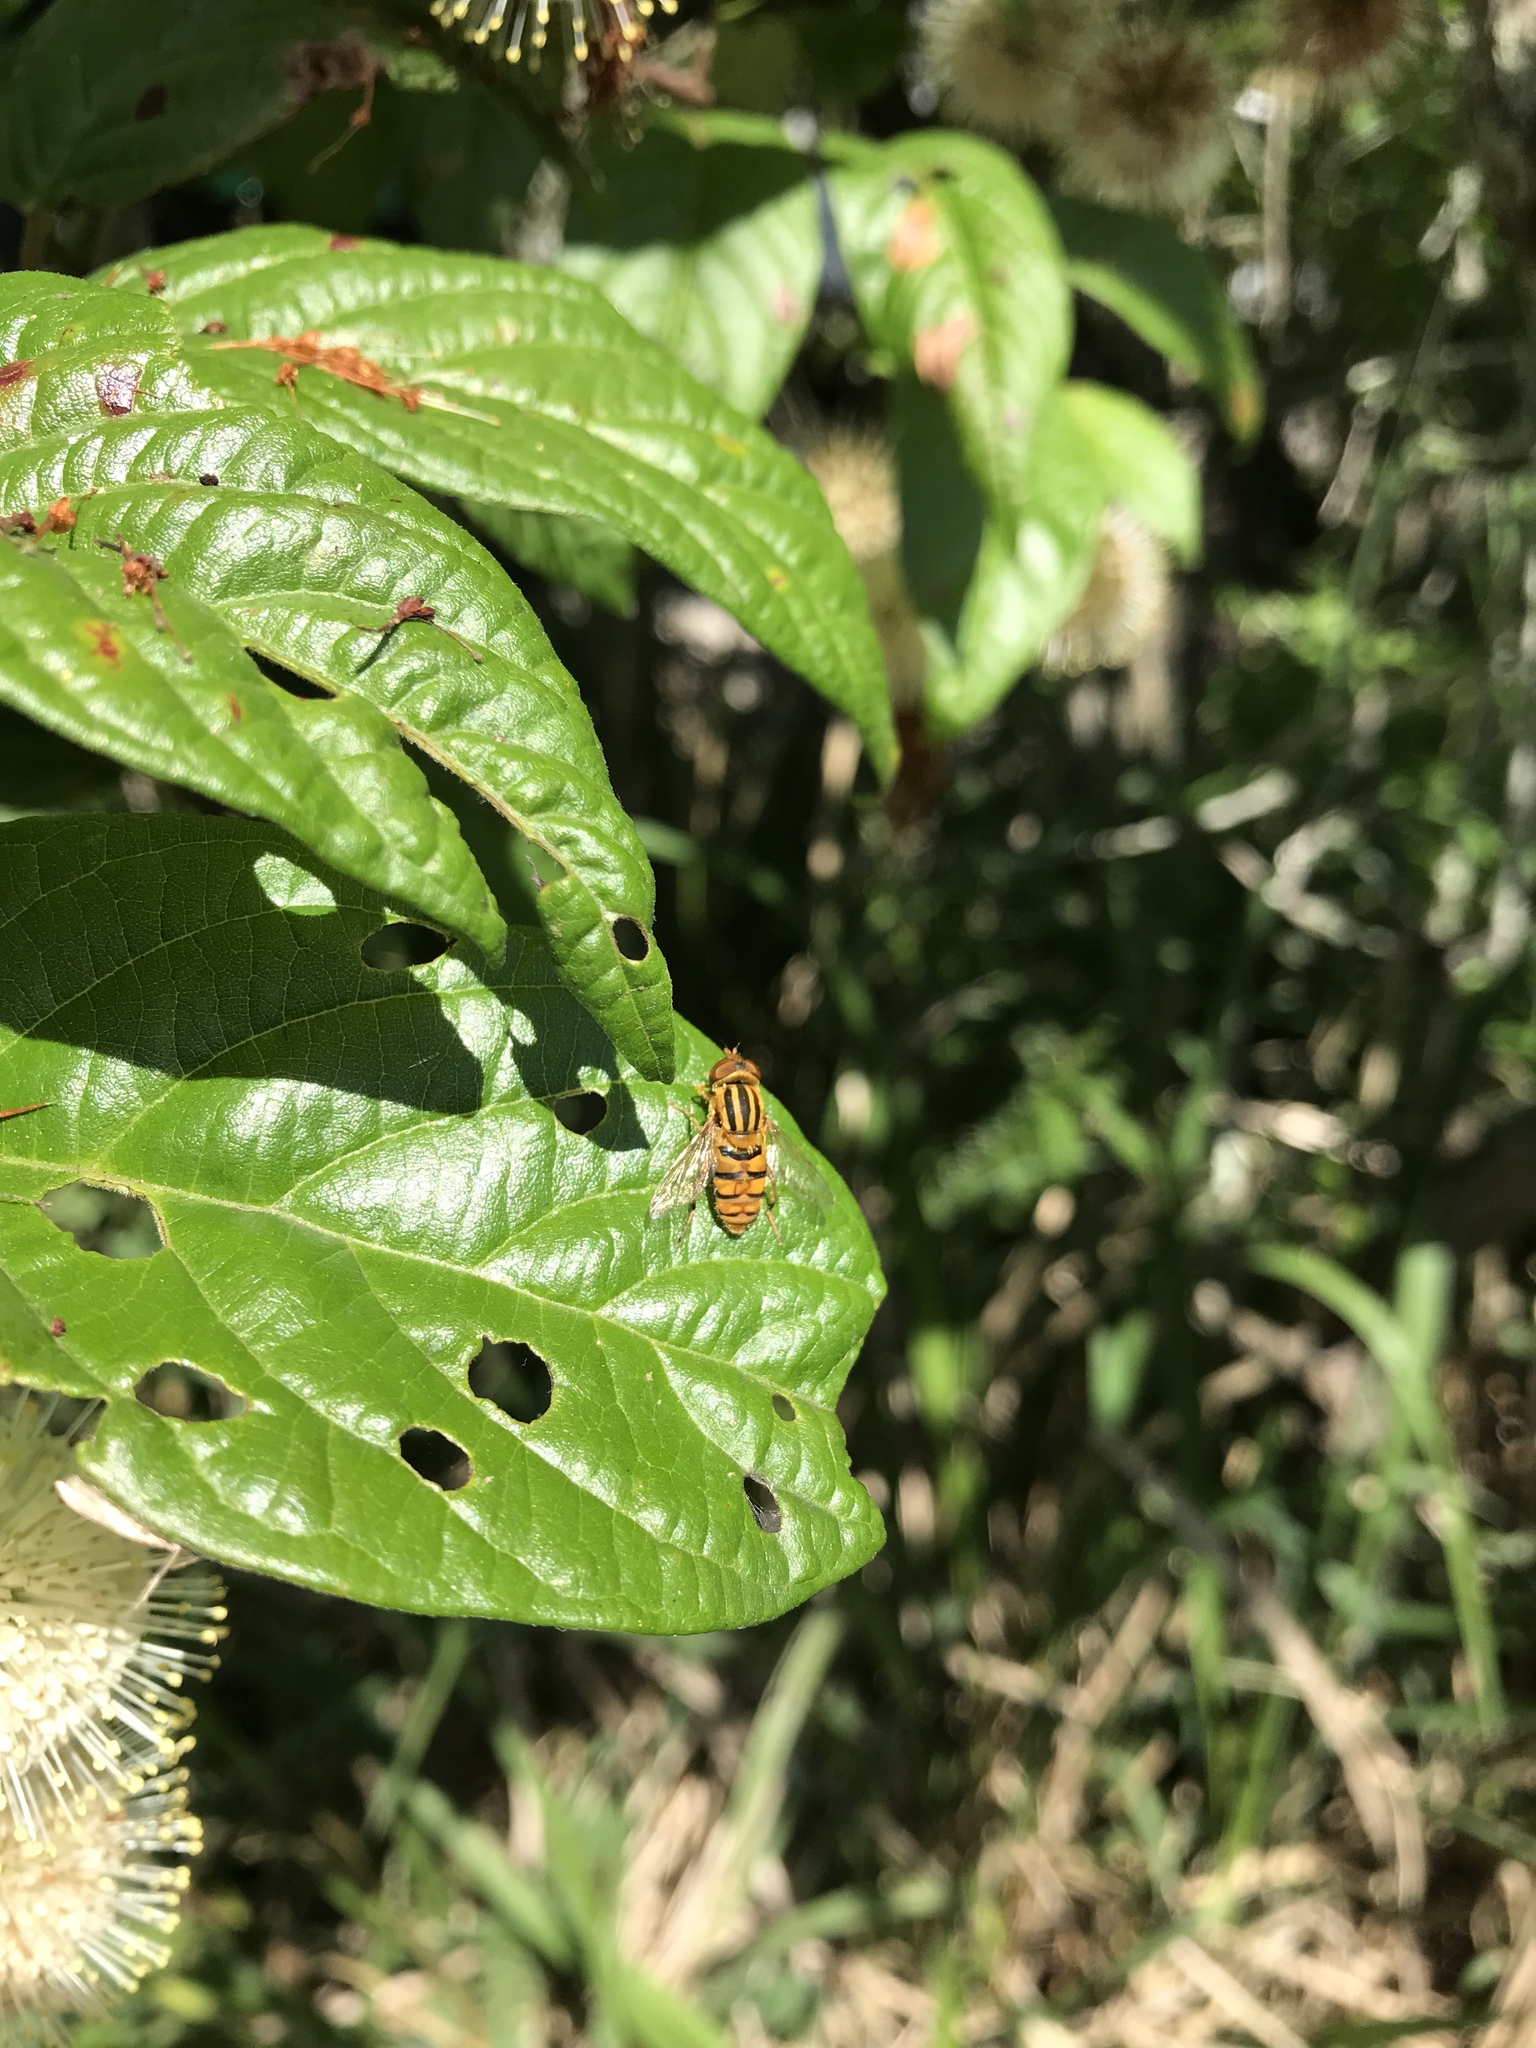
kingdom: Animalia
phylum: Arthropoda
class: Insecta
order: Diptera
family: Syrphidae
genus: Parhelophilus
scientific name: Parhelophilus integer
